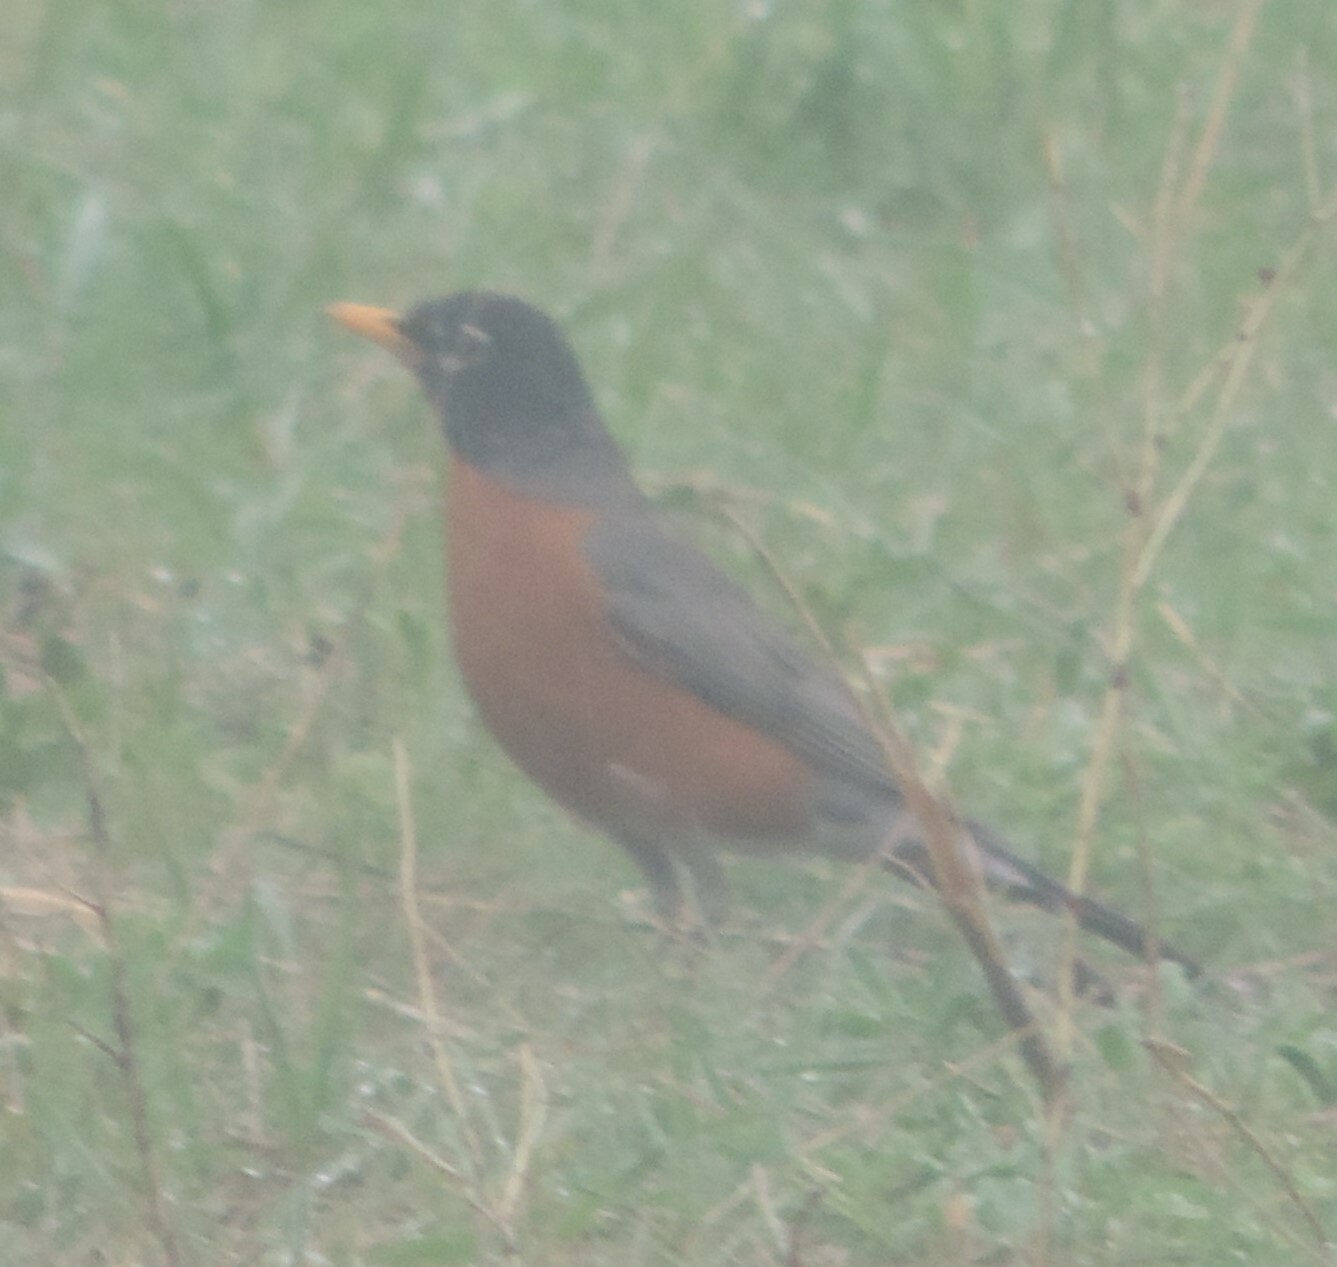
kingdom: Animalia
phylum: Chordata
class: Aves
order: Passeriformes
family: Turdidae
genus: Turdus
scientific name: Turdus migratorius
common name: American robin
